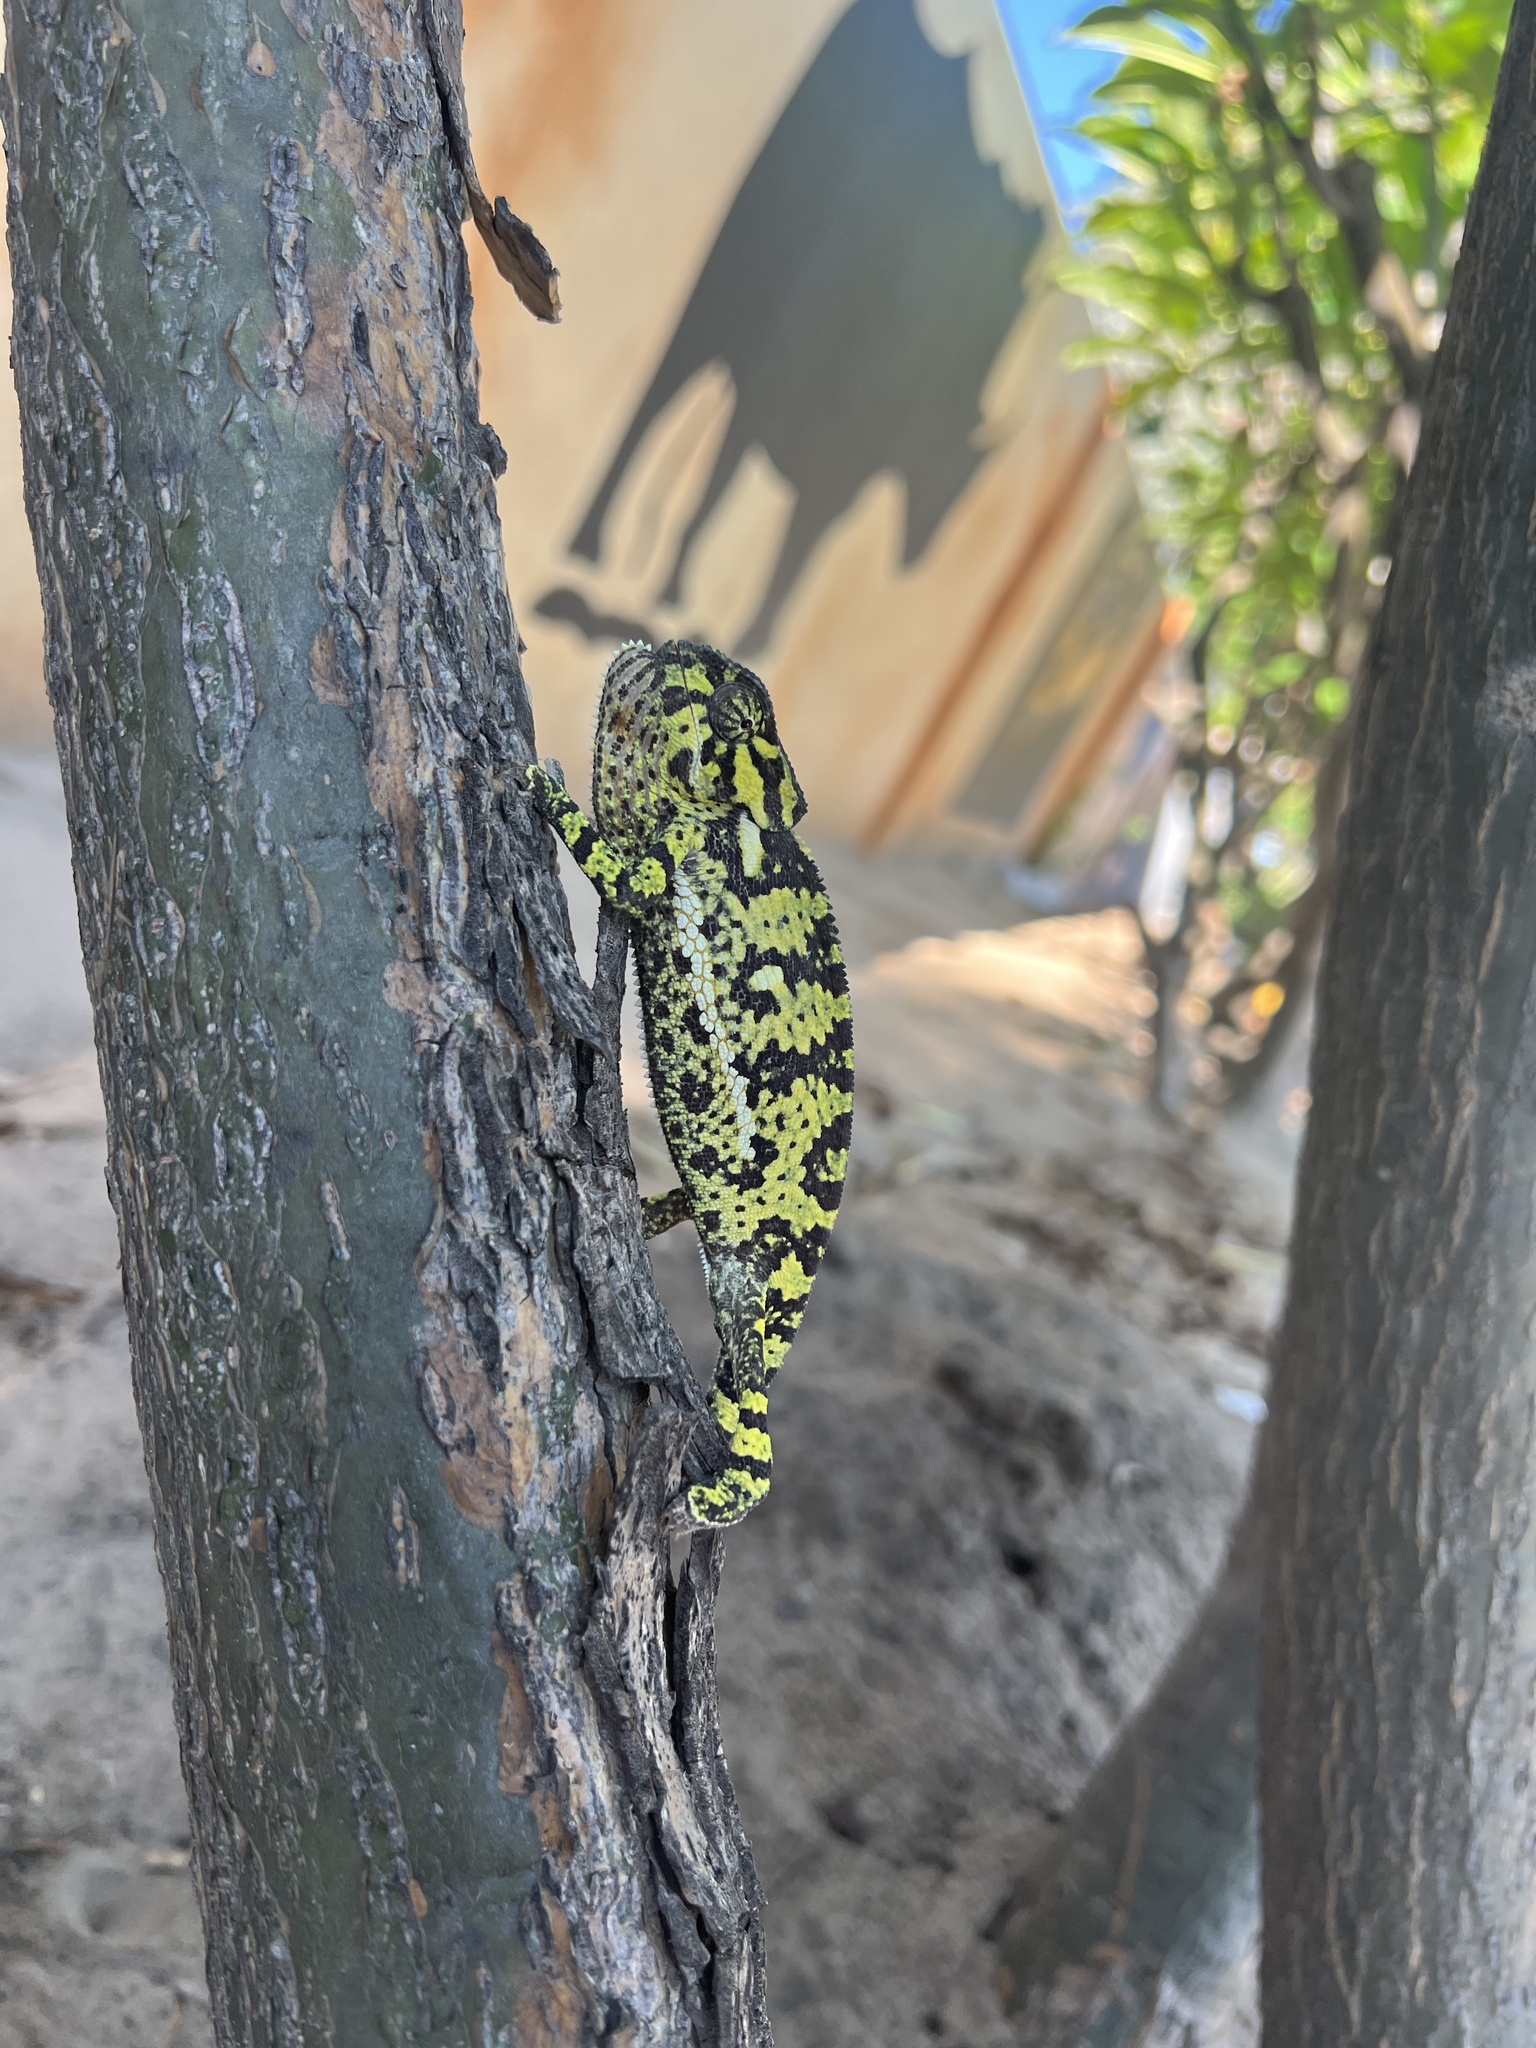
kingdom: Animalia
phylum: Chordata
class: Squamata
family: Chamaeleonidae
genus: Chamaeleo
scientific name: Chamaeleo dilepis
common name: Flapneck chameleon
